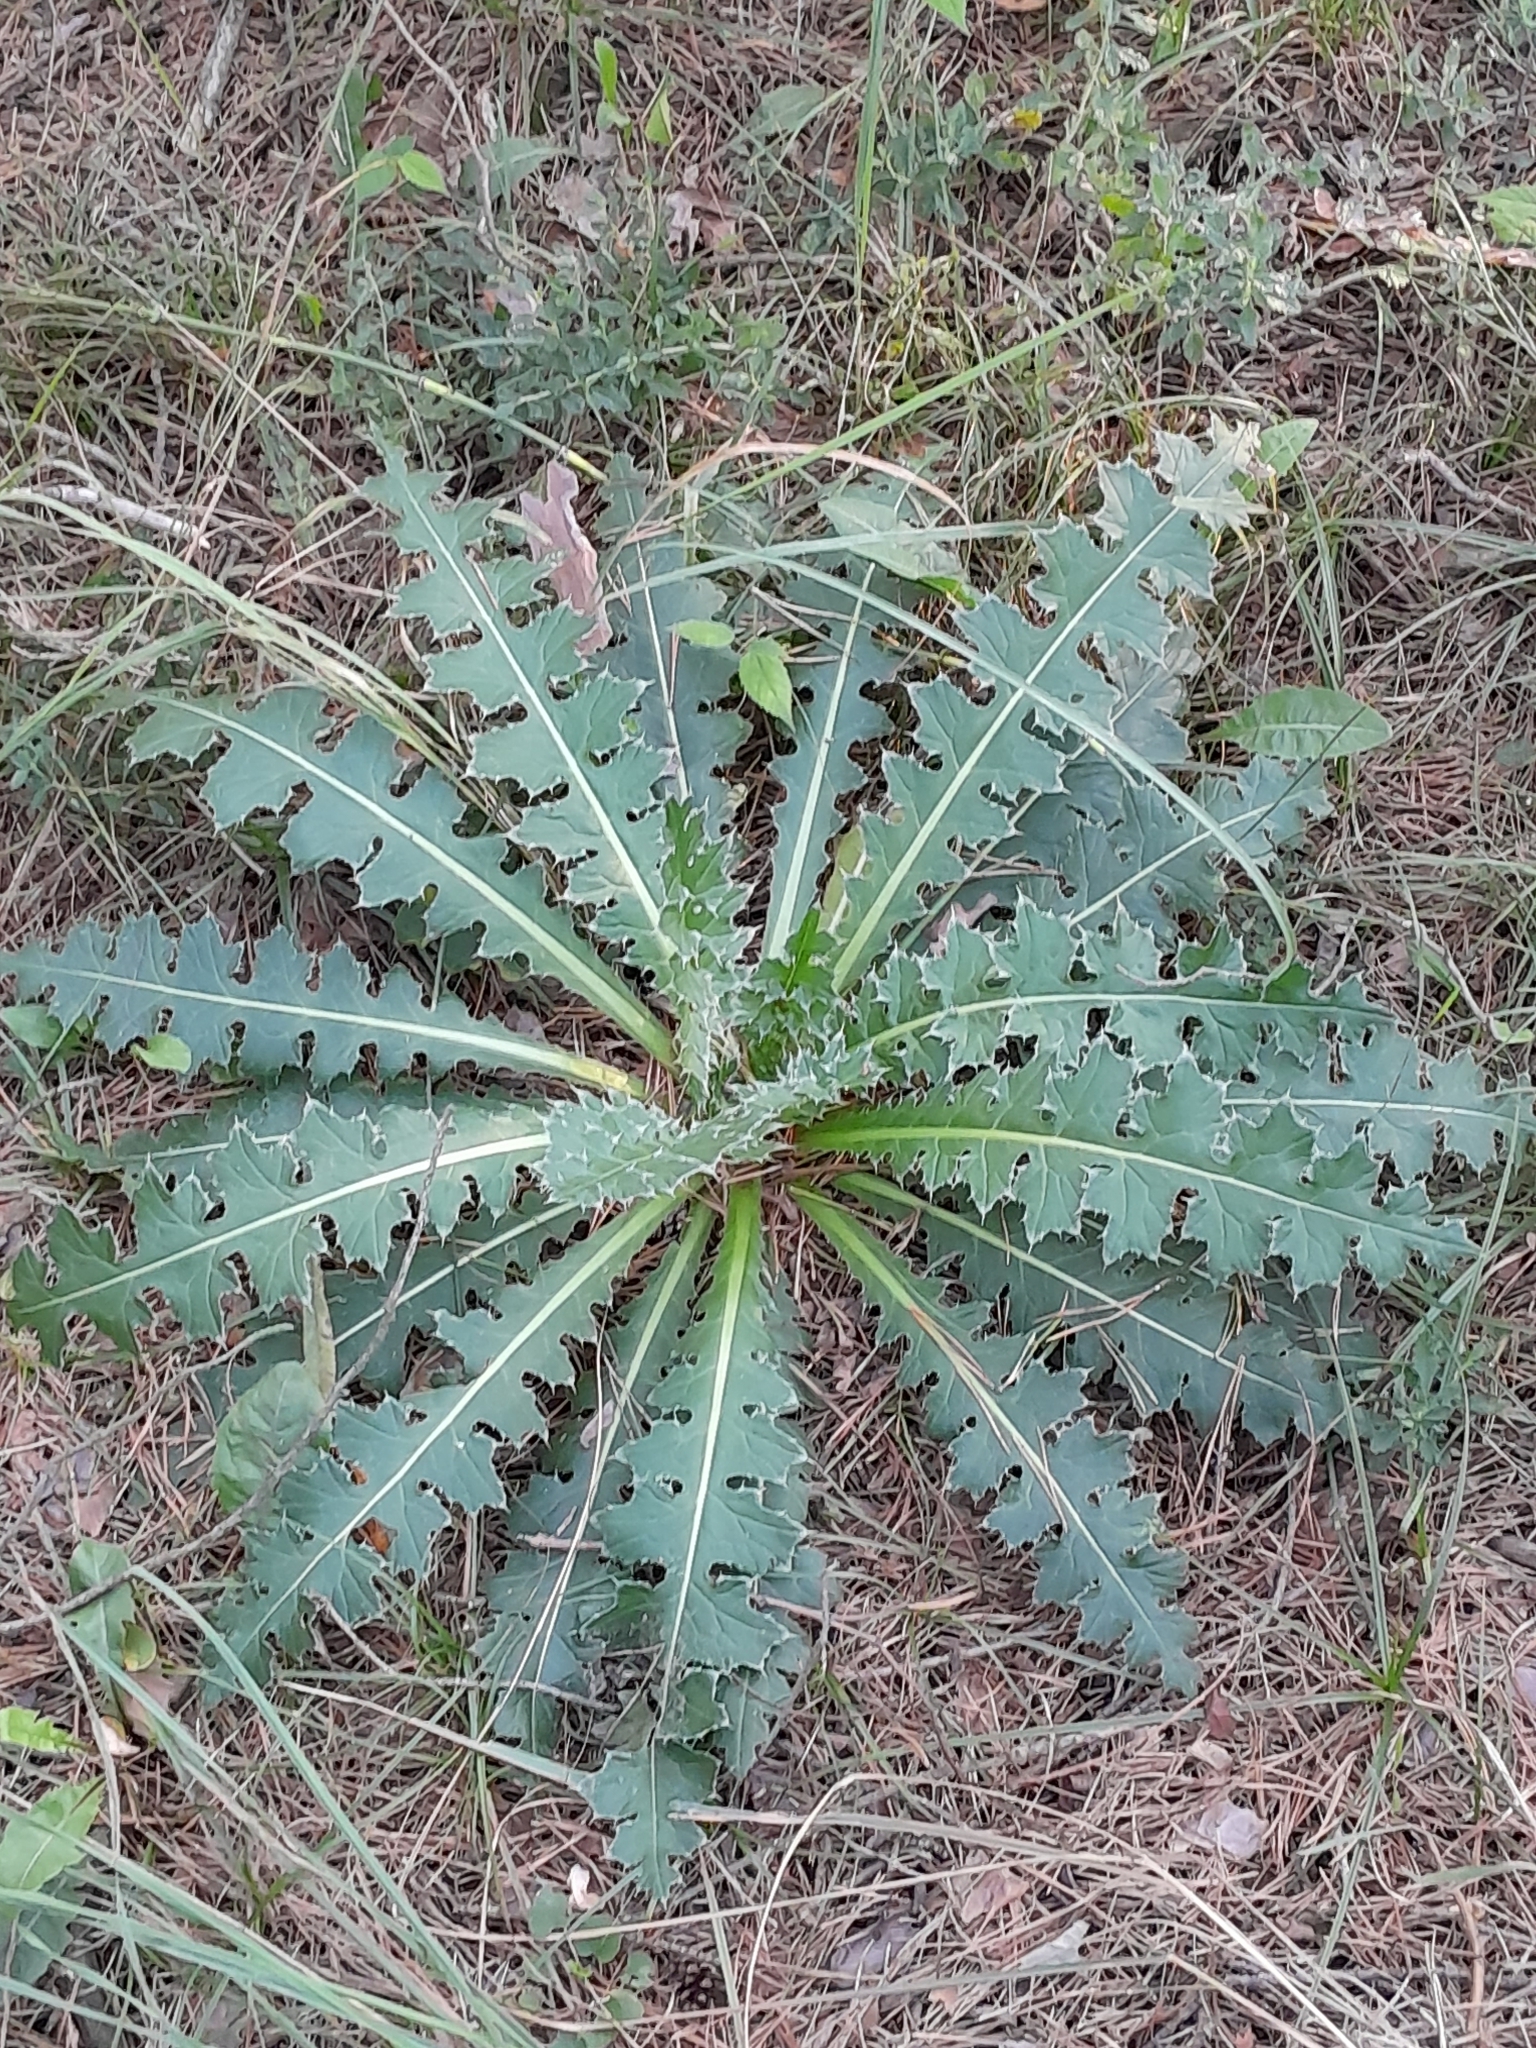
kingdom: Plantae
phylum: Tracheophyta
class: Magnoliopsida
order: Asterales
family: Asteraceae
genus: Carduus
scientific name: Carduus nutans
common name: Musk thistle
